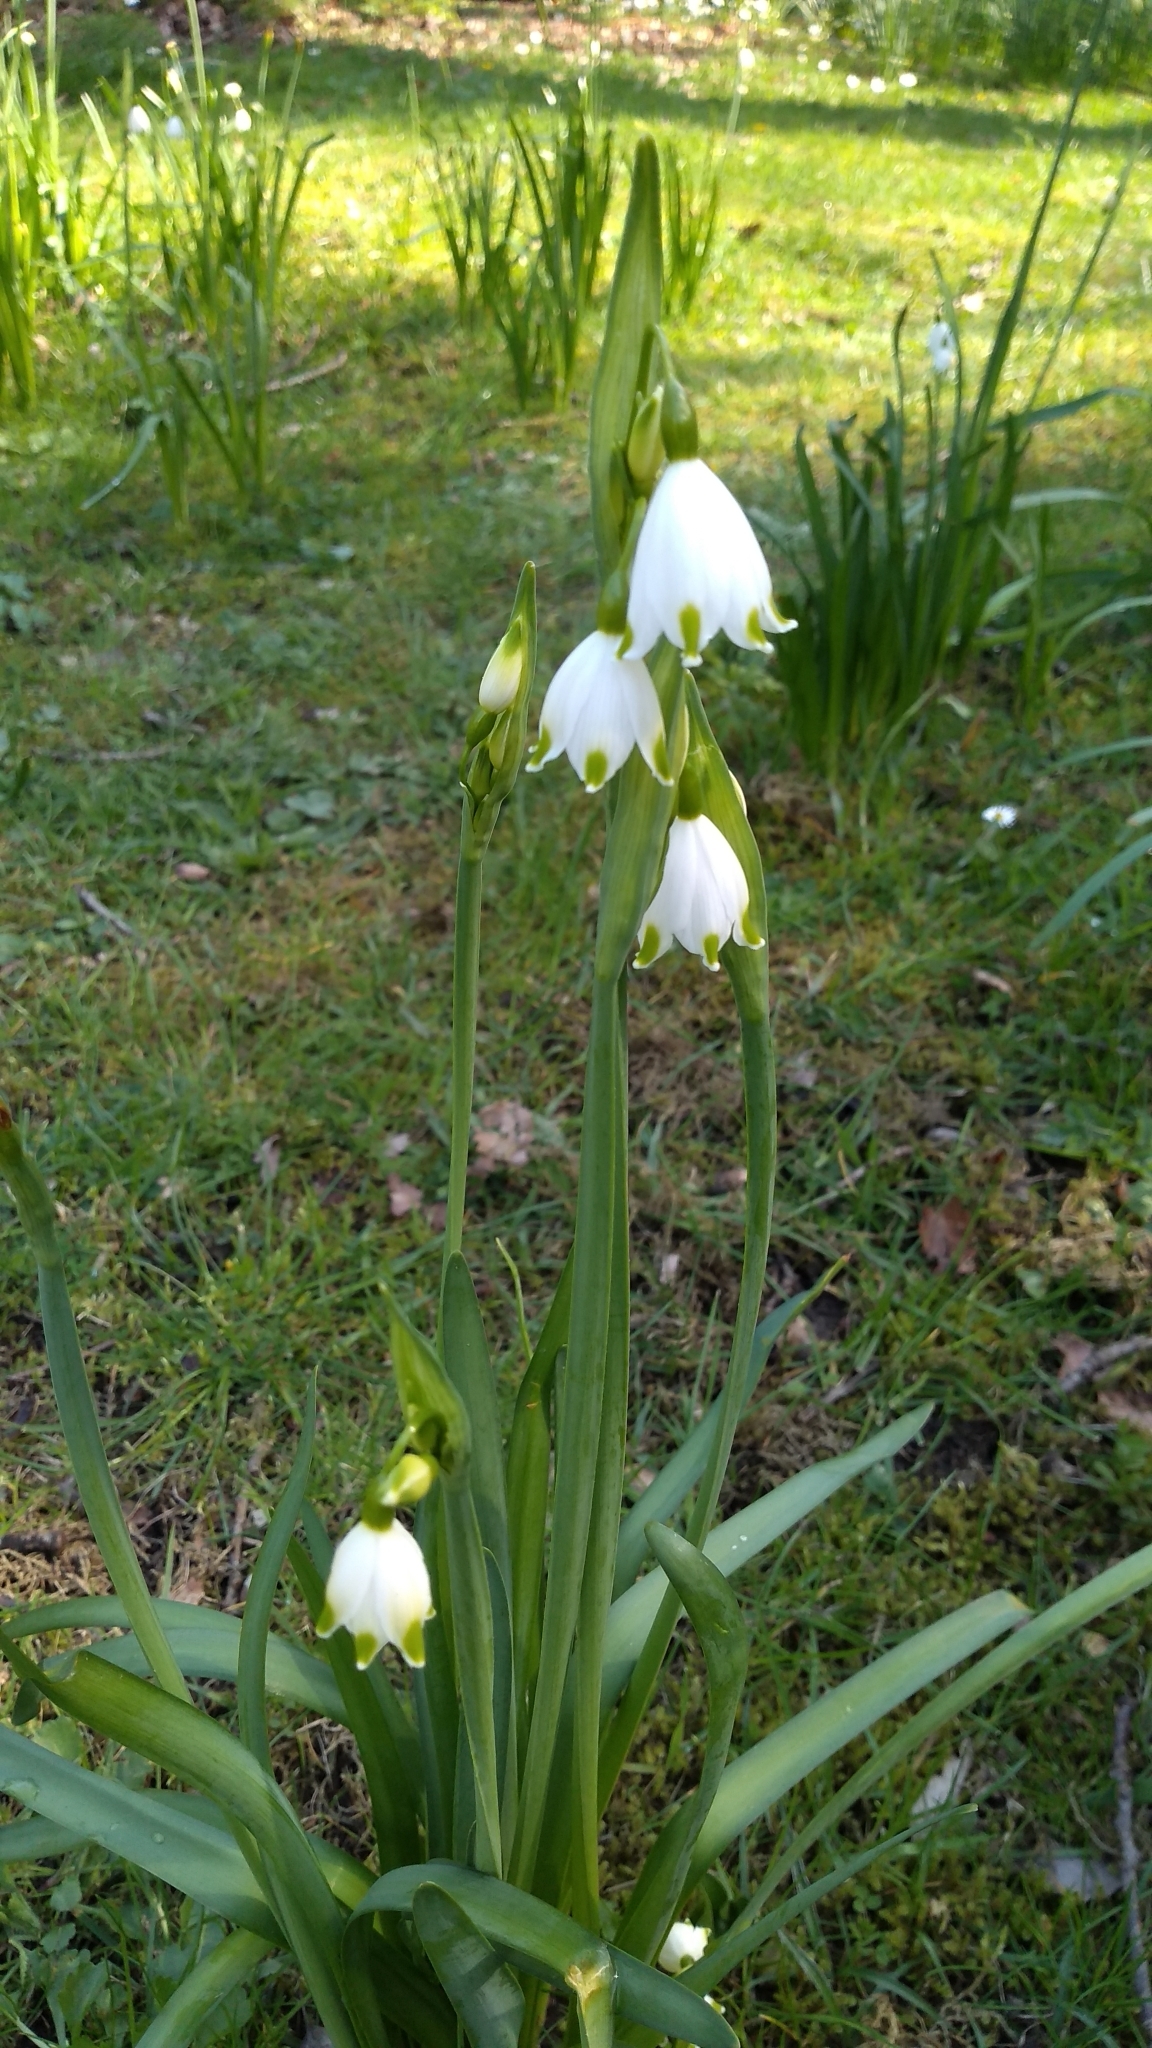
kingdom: Plantae
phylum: Tracheophyta
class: Liliopsida
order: Asparagales
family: Amaryllidaceae
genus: Leucojum
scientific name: Leucojum aestivum
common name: Summer snowflake
